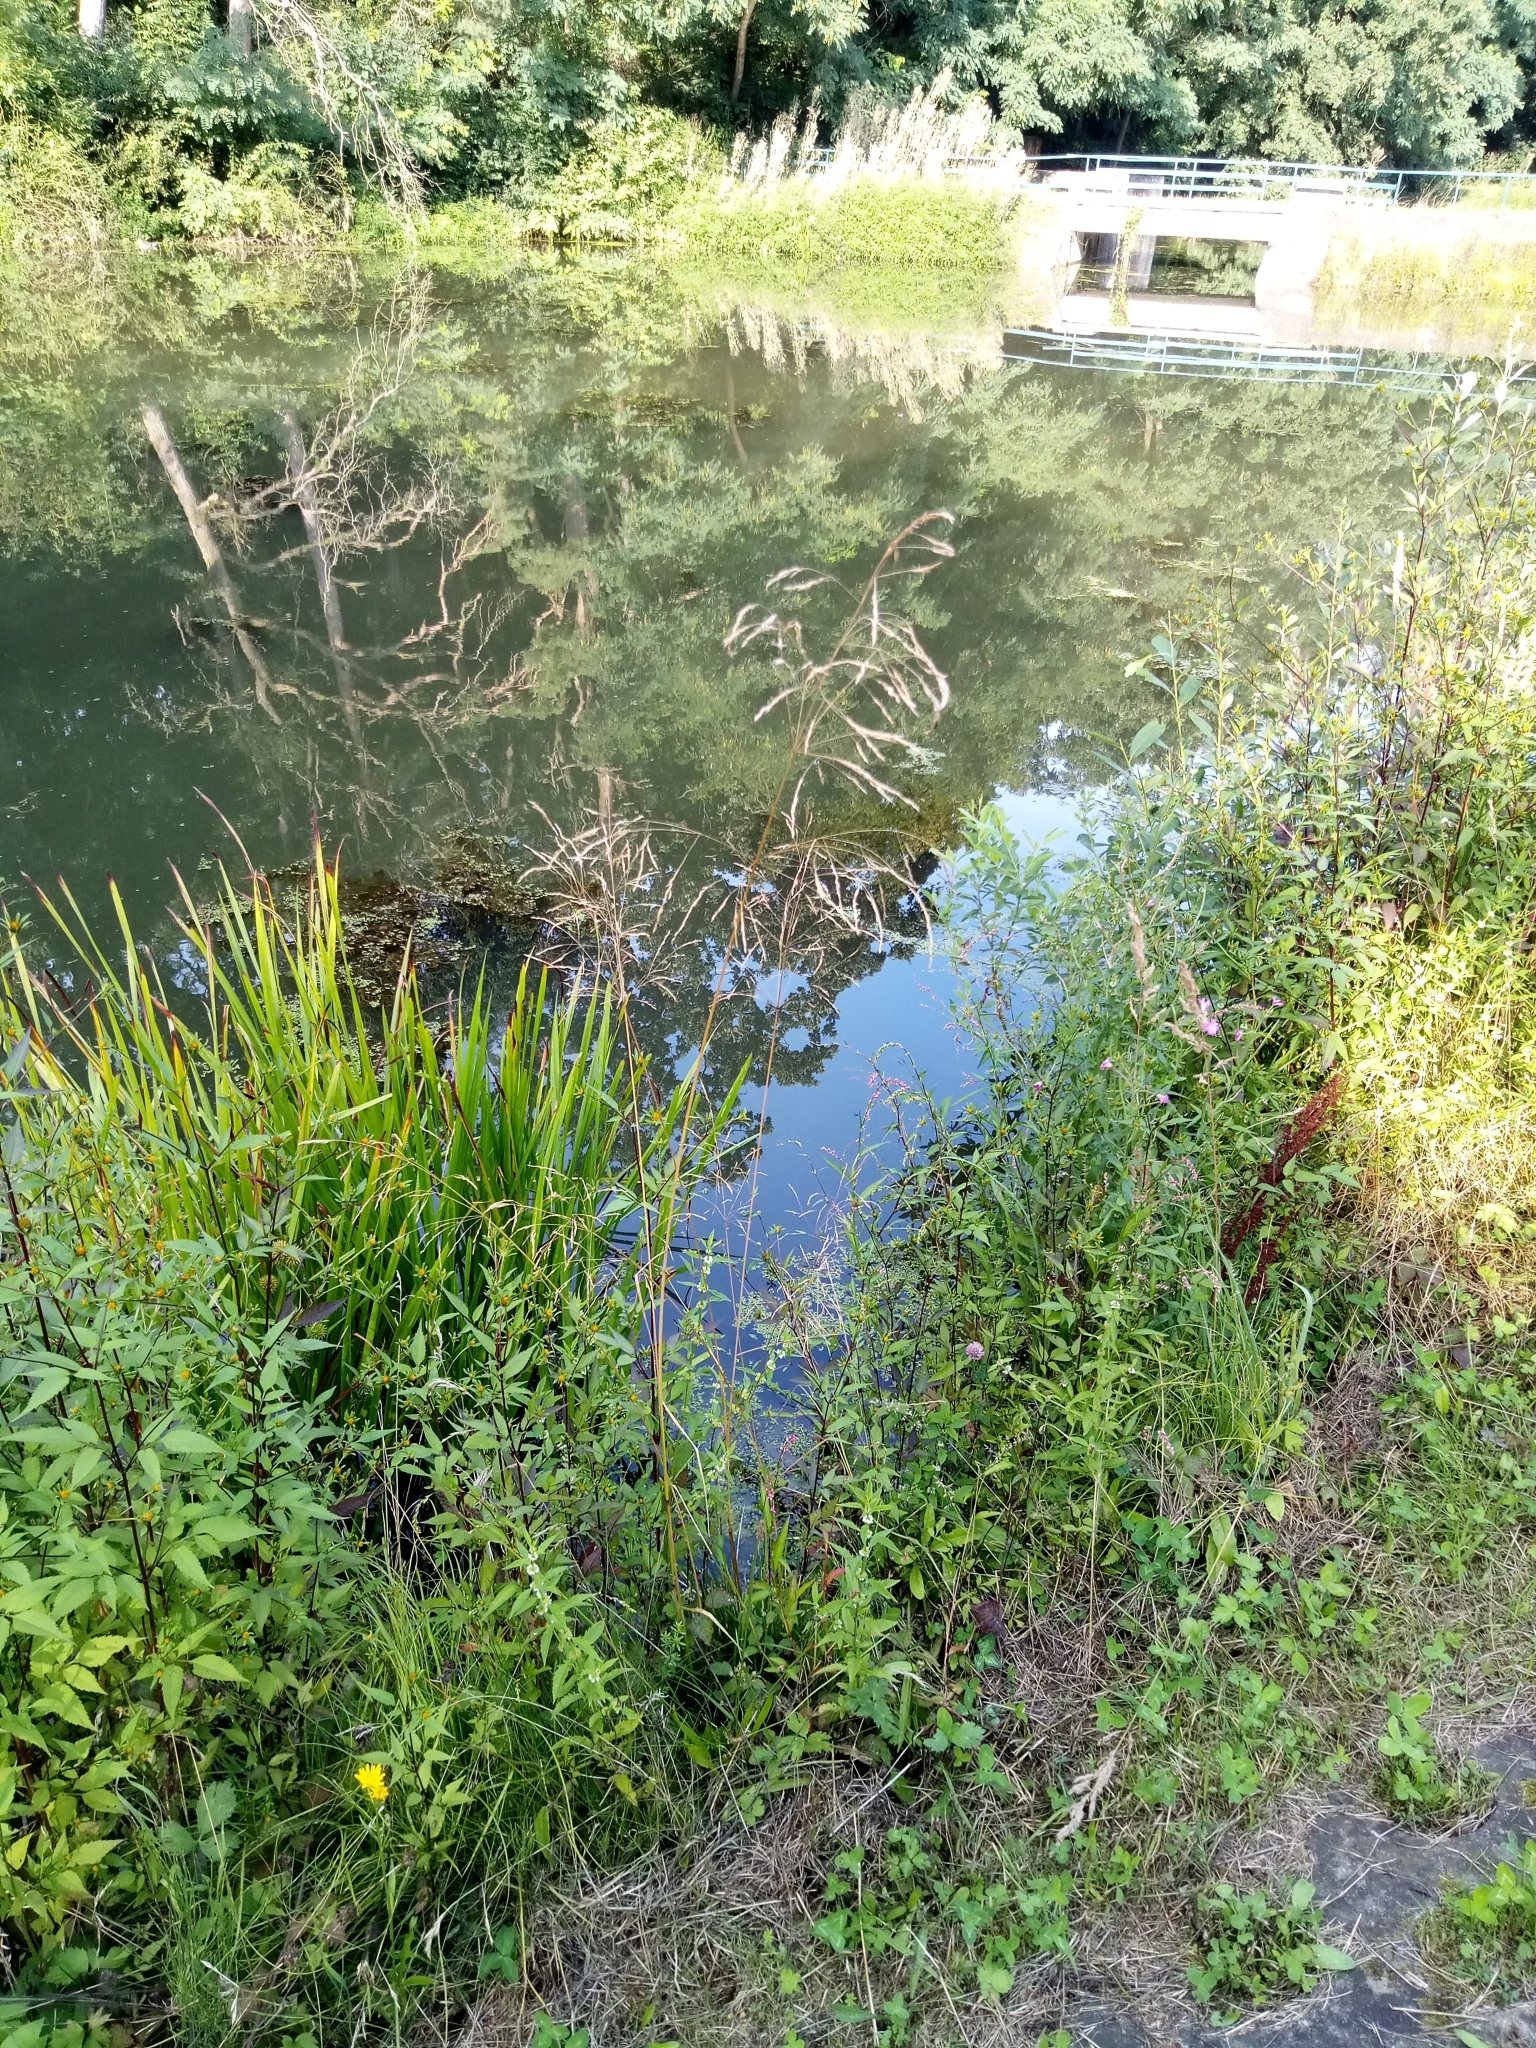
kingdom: Plantae
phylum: Tracheophyta
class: Liliopsida
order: Poales
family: Poaceae
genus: Deschampsia
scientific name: Deschampsia cespitosa
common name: Tufted hair-grass
